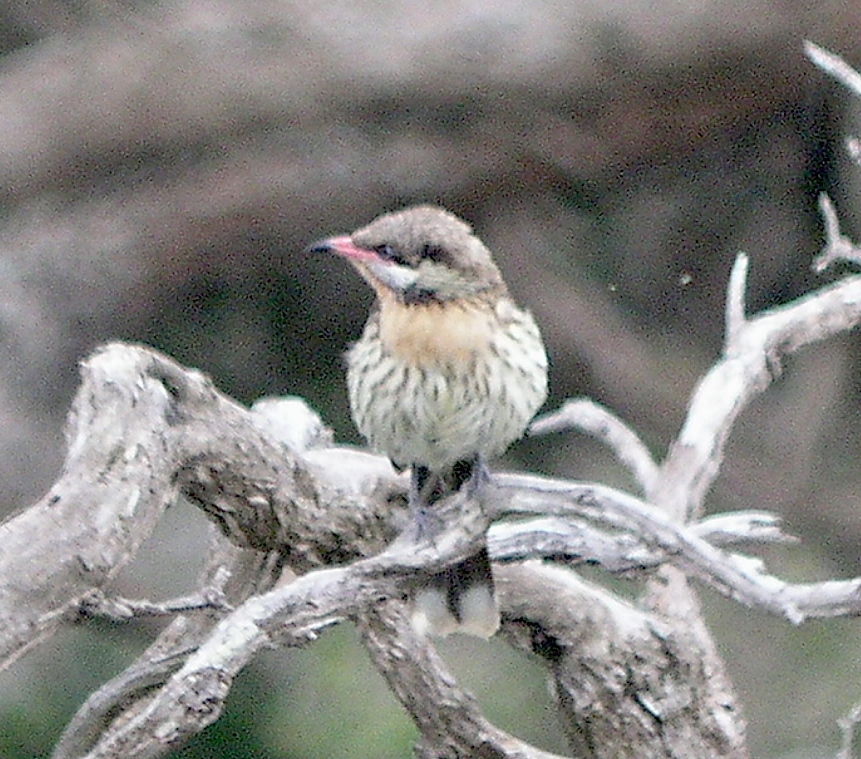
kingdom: Animalia
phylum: Chordata
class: Aves
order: Passeriformes
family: Meliphagidae
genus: Acanthagenys
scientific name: Acanthagenys rufogularis
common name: Spiny-cheeked honeyeater
